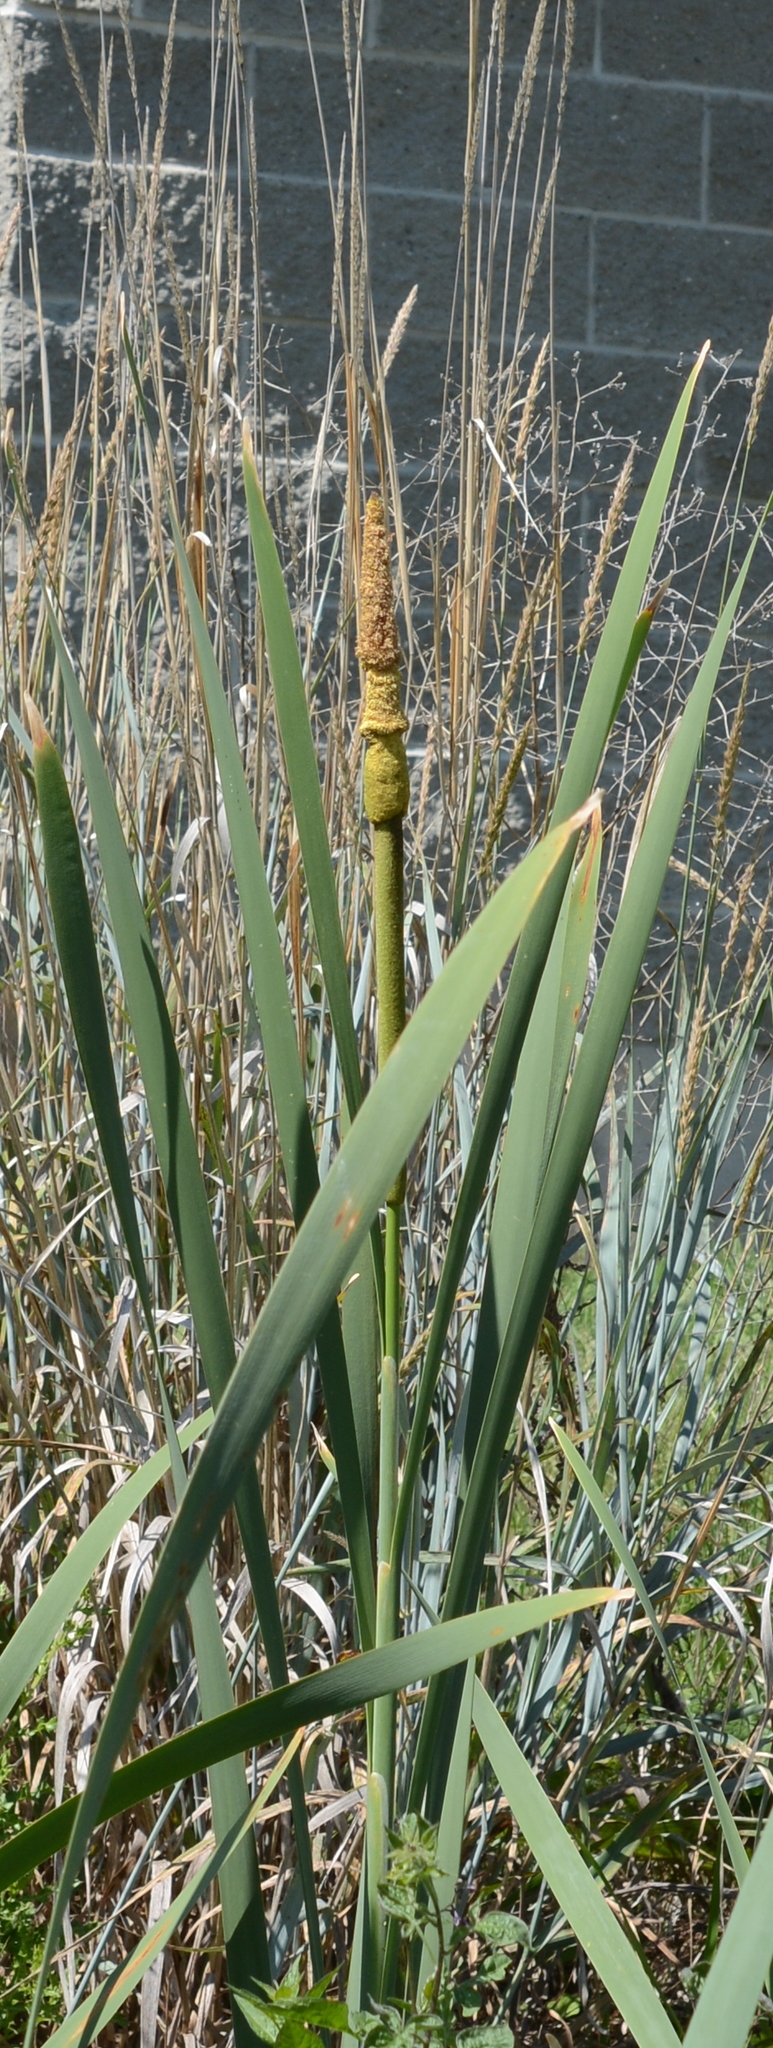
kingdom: Plantae
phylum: Tracheophyta
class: Liliopsida
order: Poales
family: Typhaceae
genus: Typha
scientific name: Typha latifolia
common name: Broadleaf cattail
